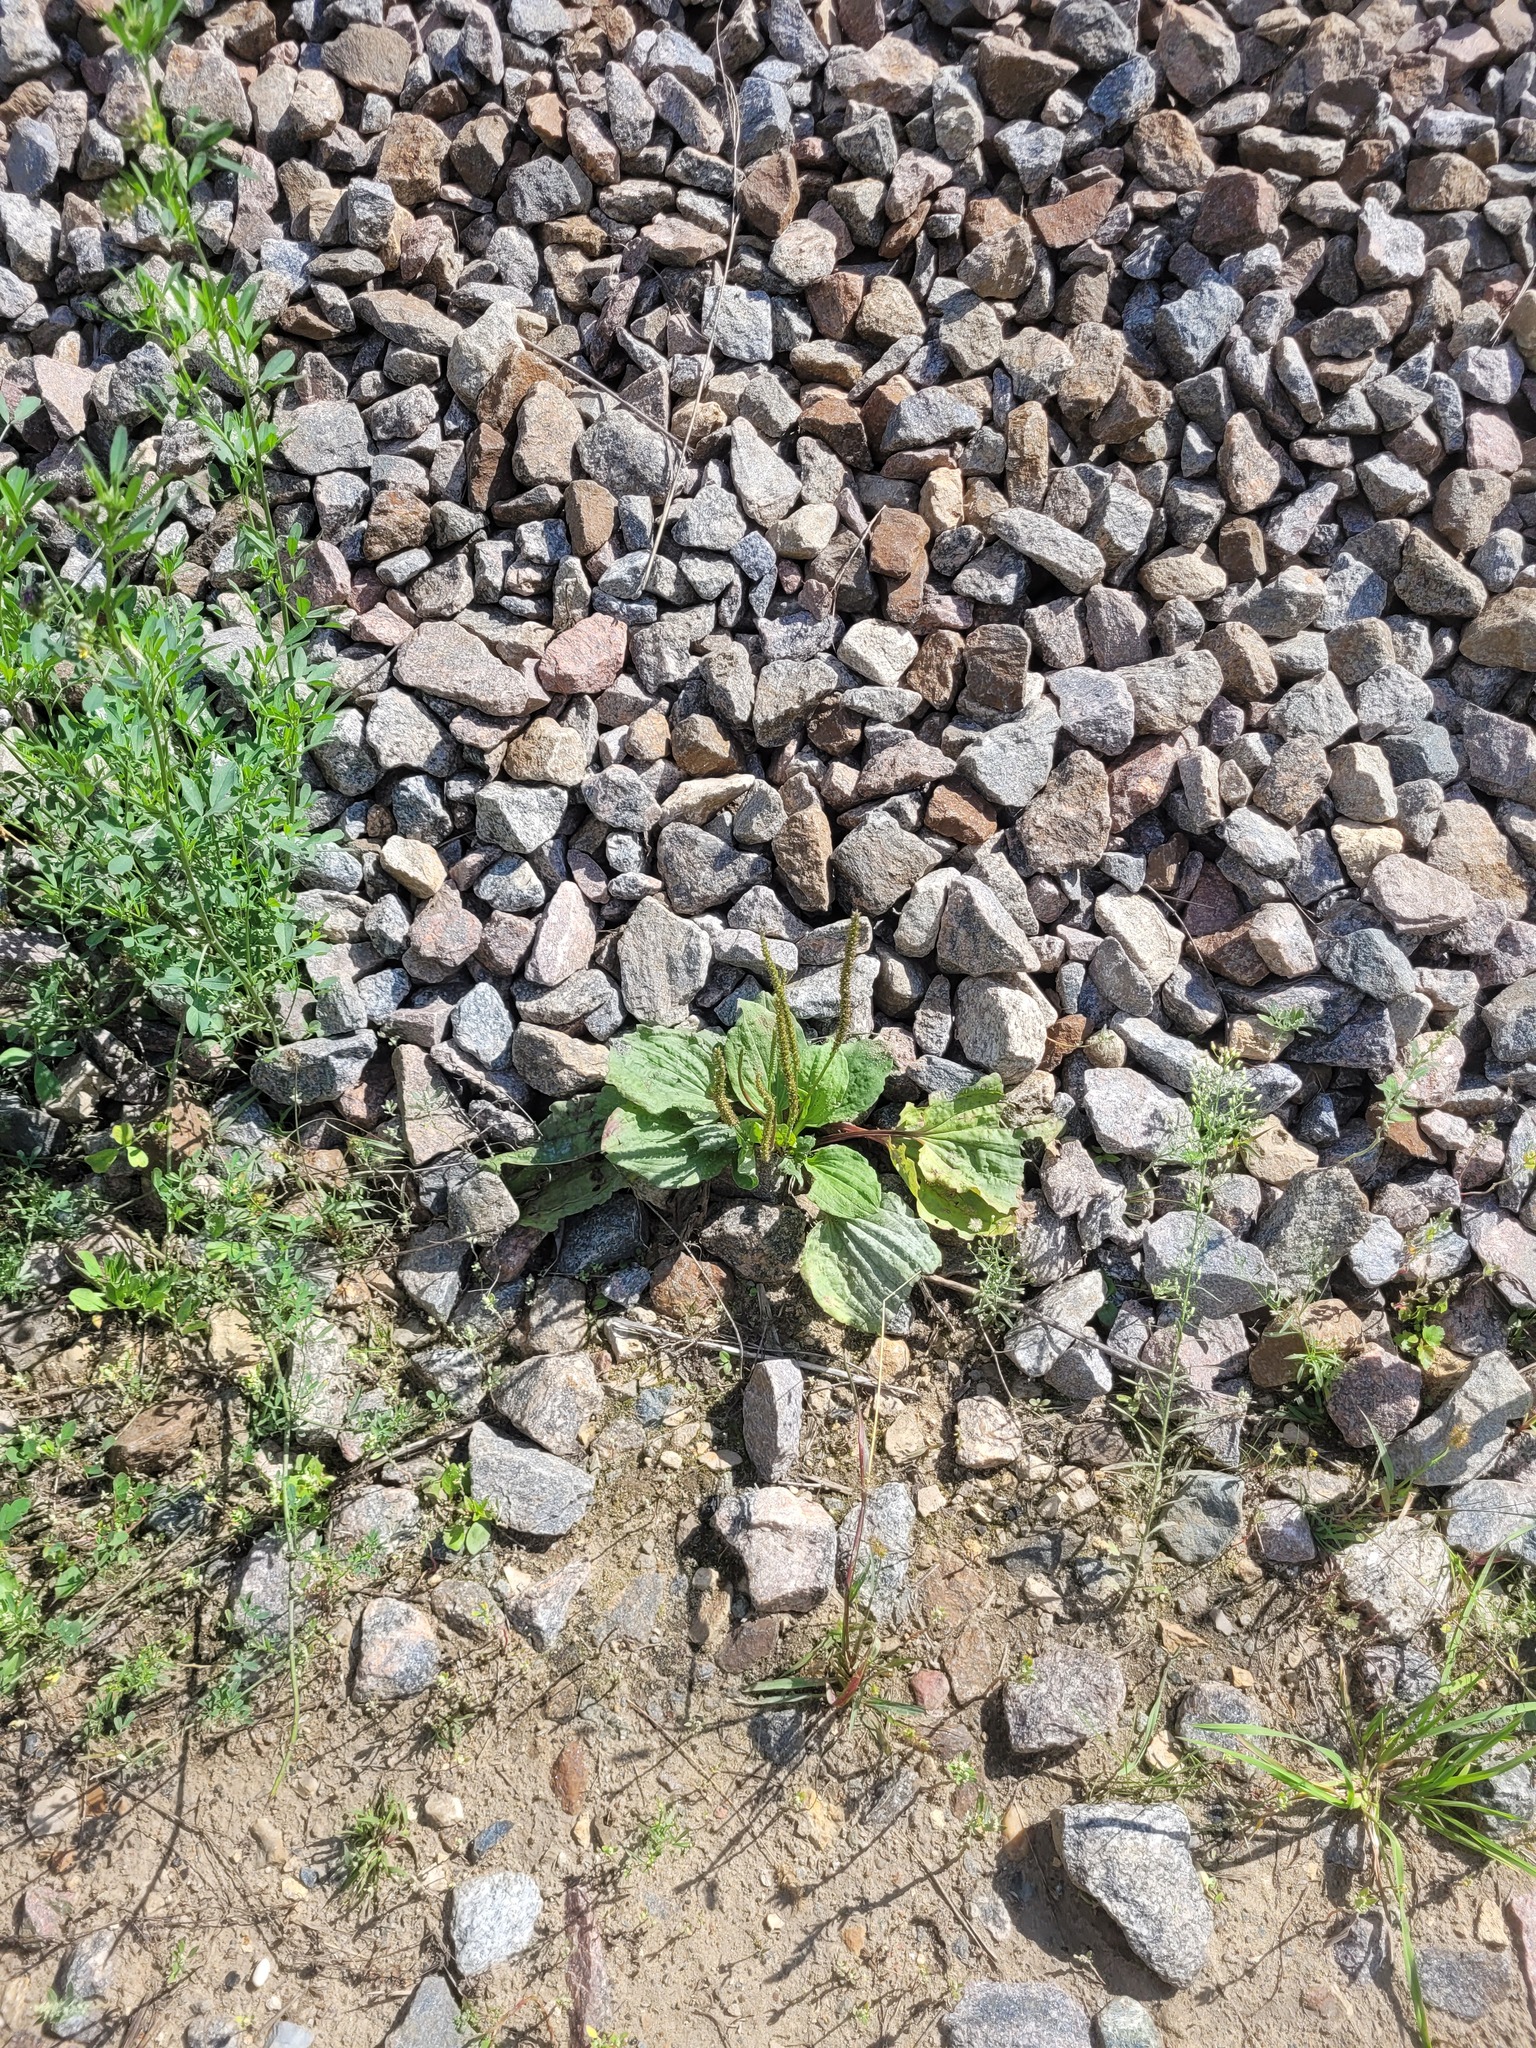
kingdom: Plantae
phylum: Tracheophyta
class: Magnoliopsida
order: Lamiales
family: Plantaginaceae
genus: Plantago
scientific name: Plantago major
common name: Common plantain
